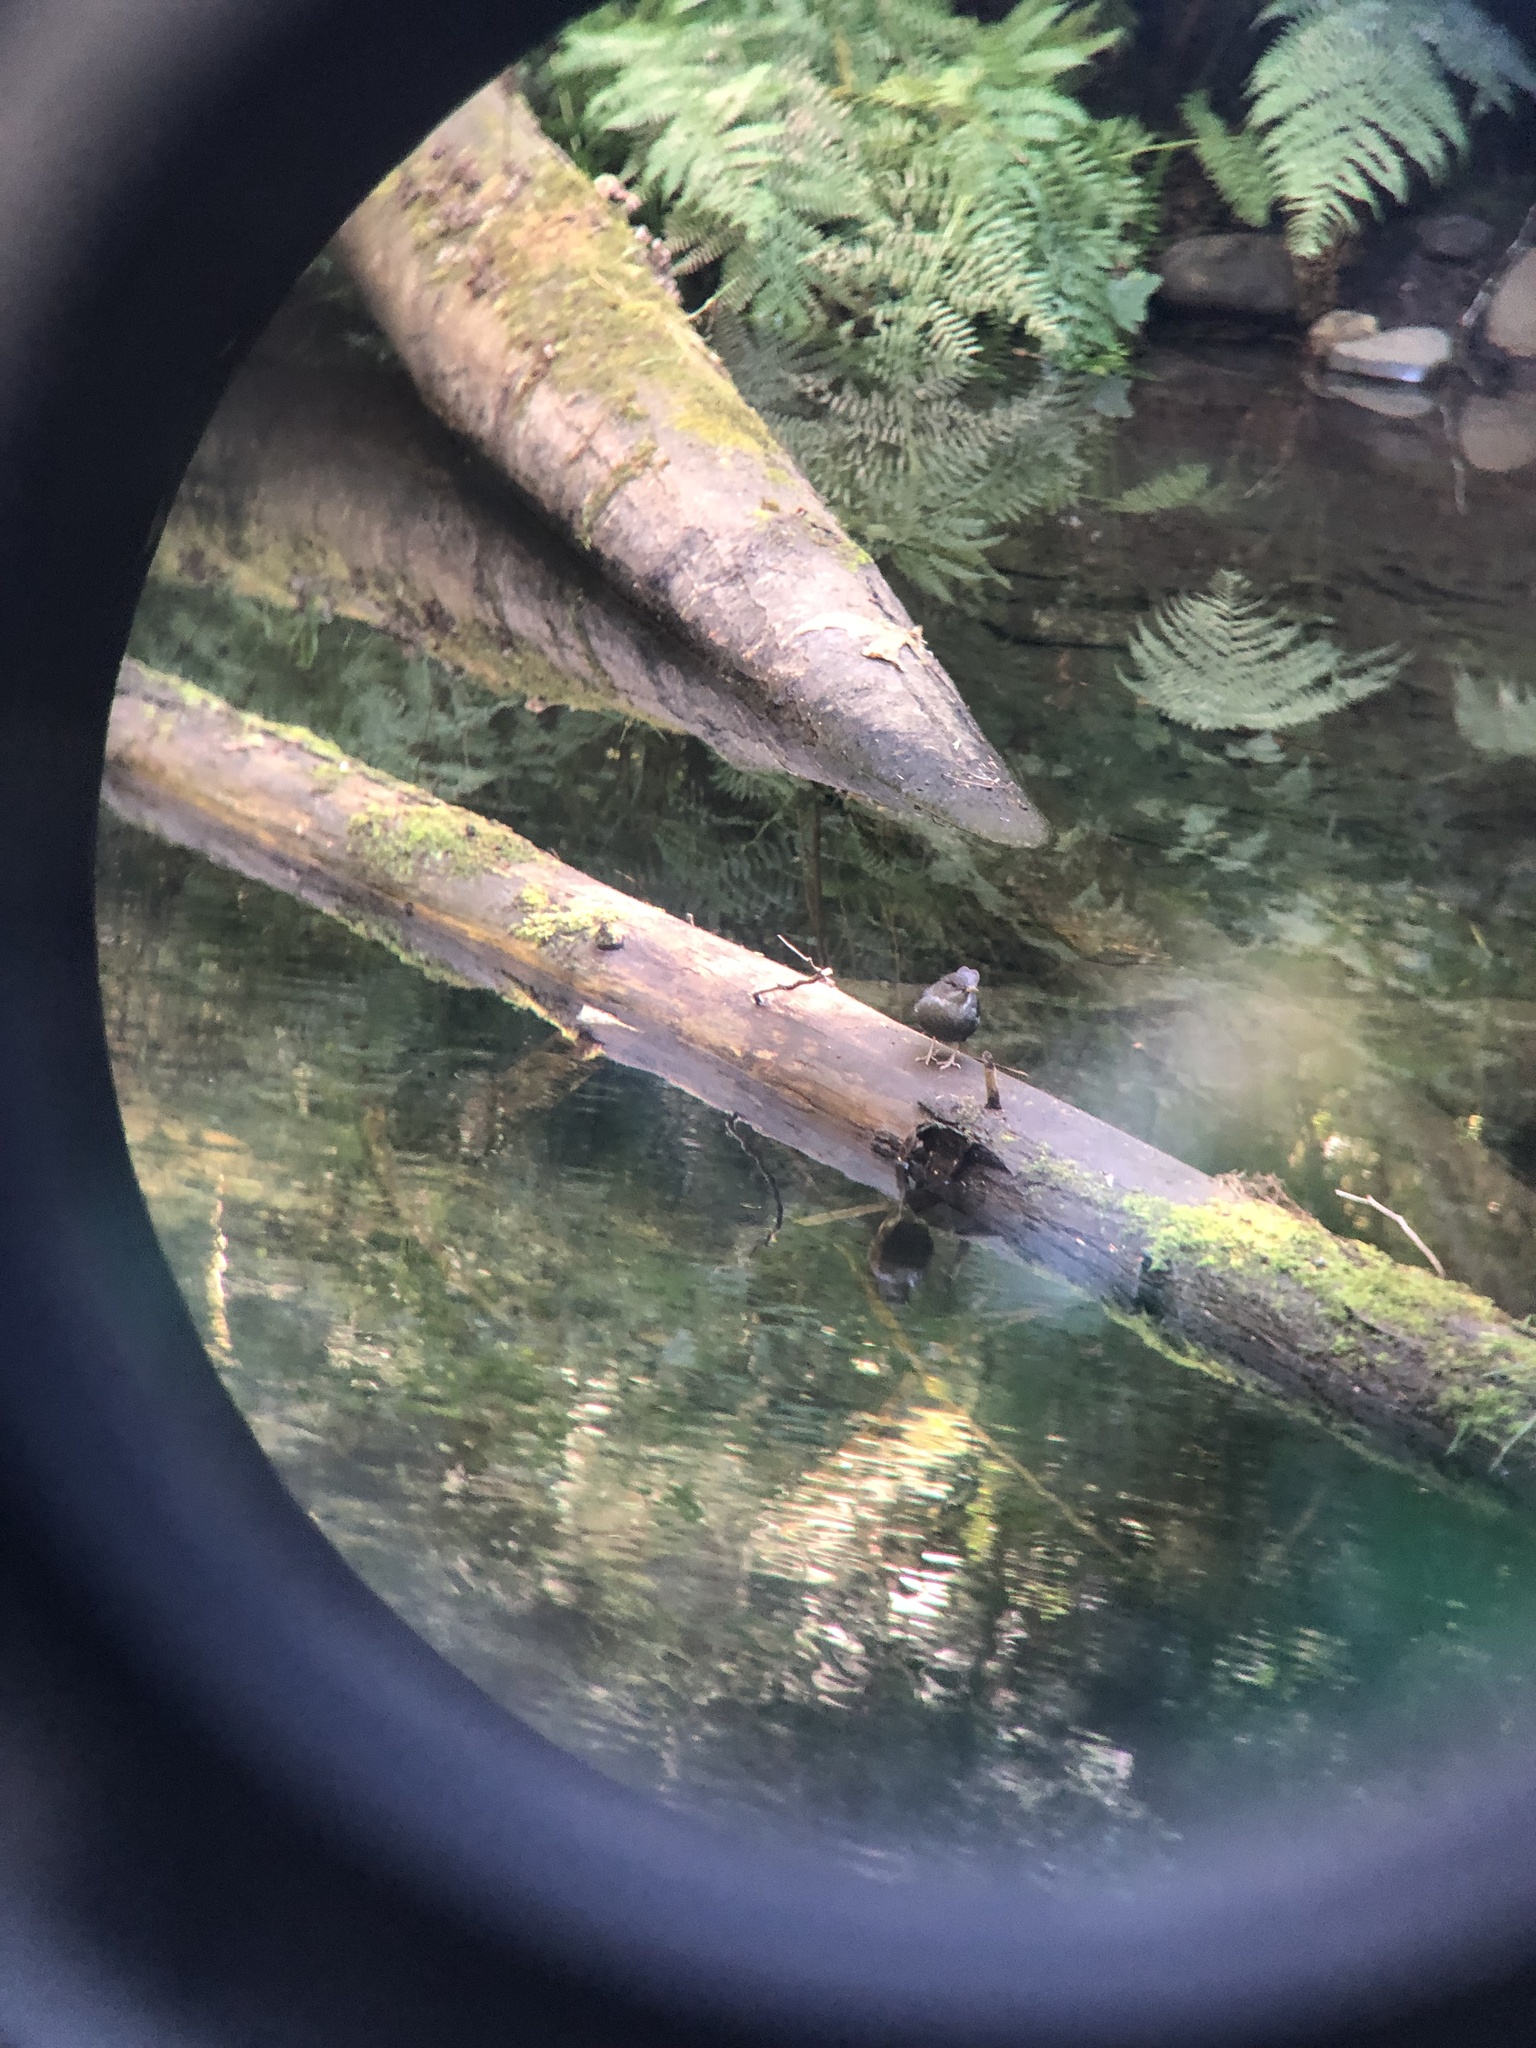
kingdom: Animalia
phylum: Chordata
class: Aves
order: Passeriformes
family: Cinclidae
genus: Cinclus
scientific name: Cinclus mexicanus
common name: American dipper
